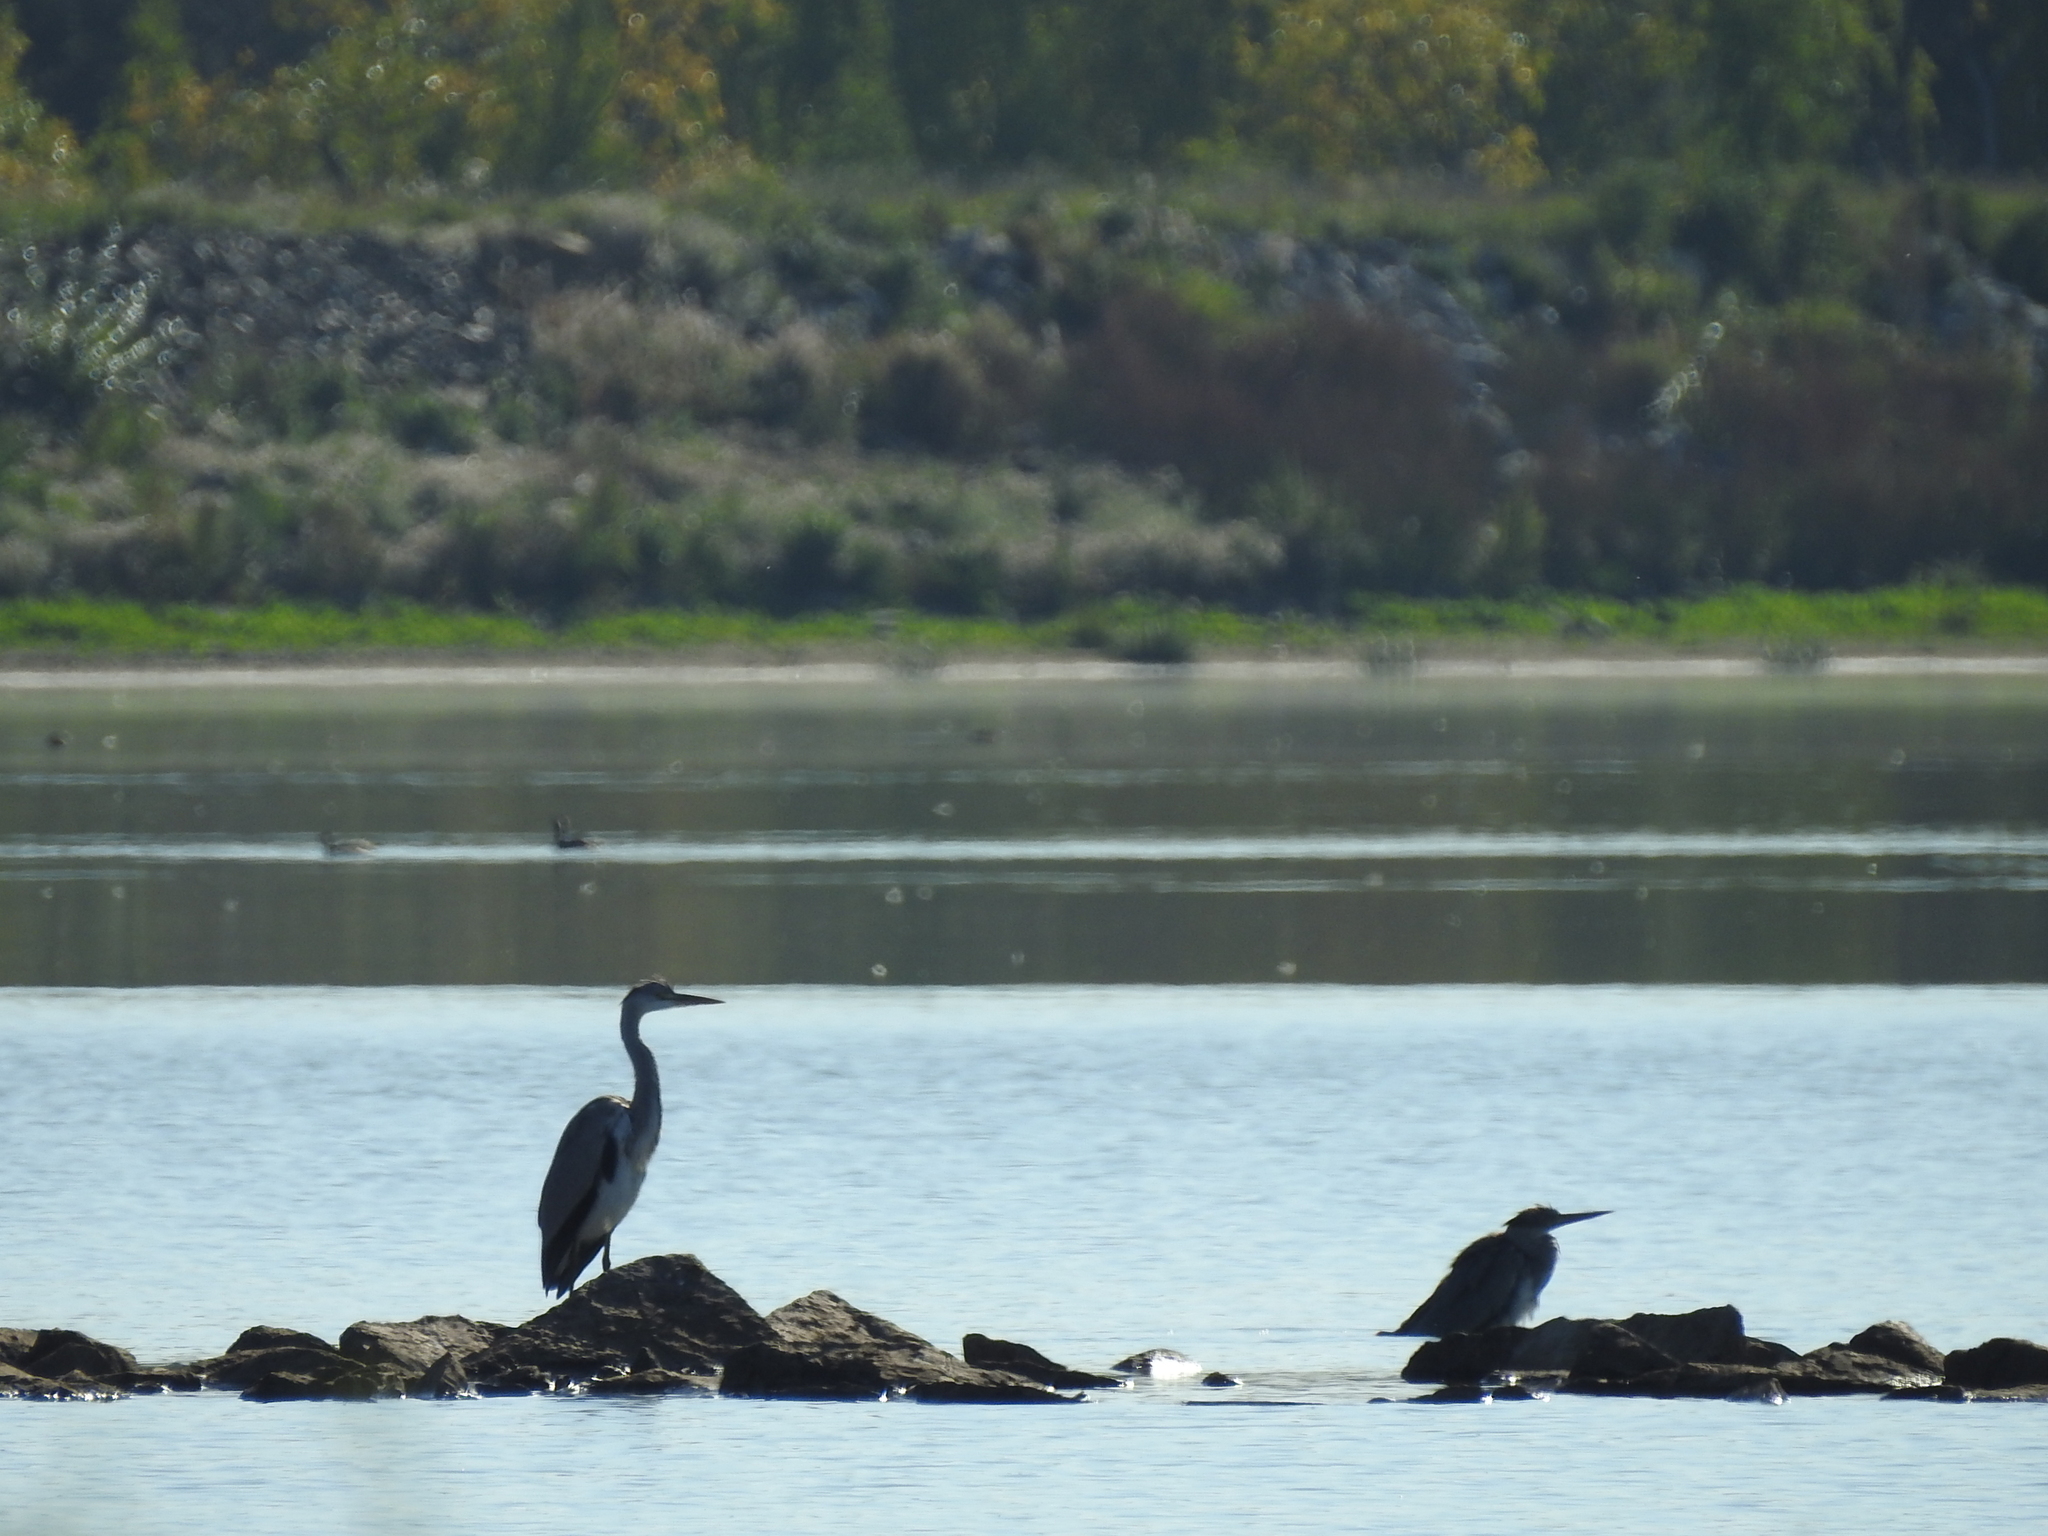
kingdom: Animalia
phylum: Chordata
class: Aves
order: Pelecaniformes
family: Ardeidae
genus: Ardea
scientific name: Ardea cinerea
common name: Grey heron
